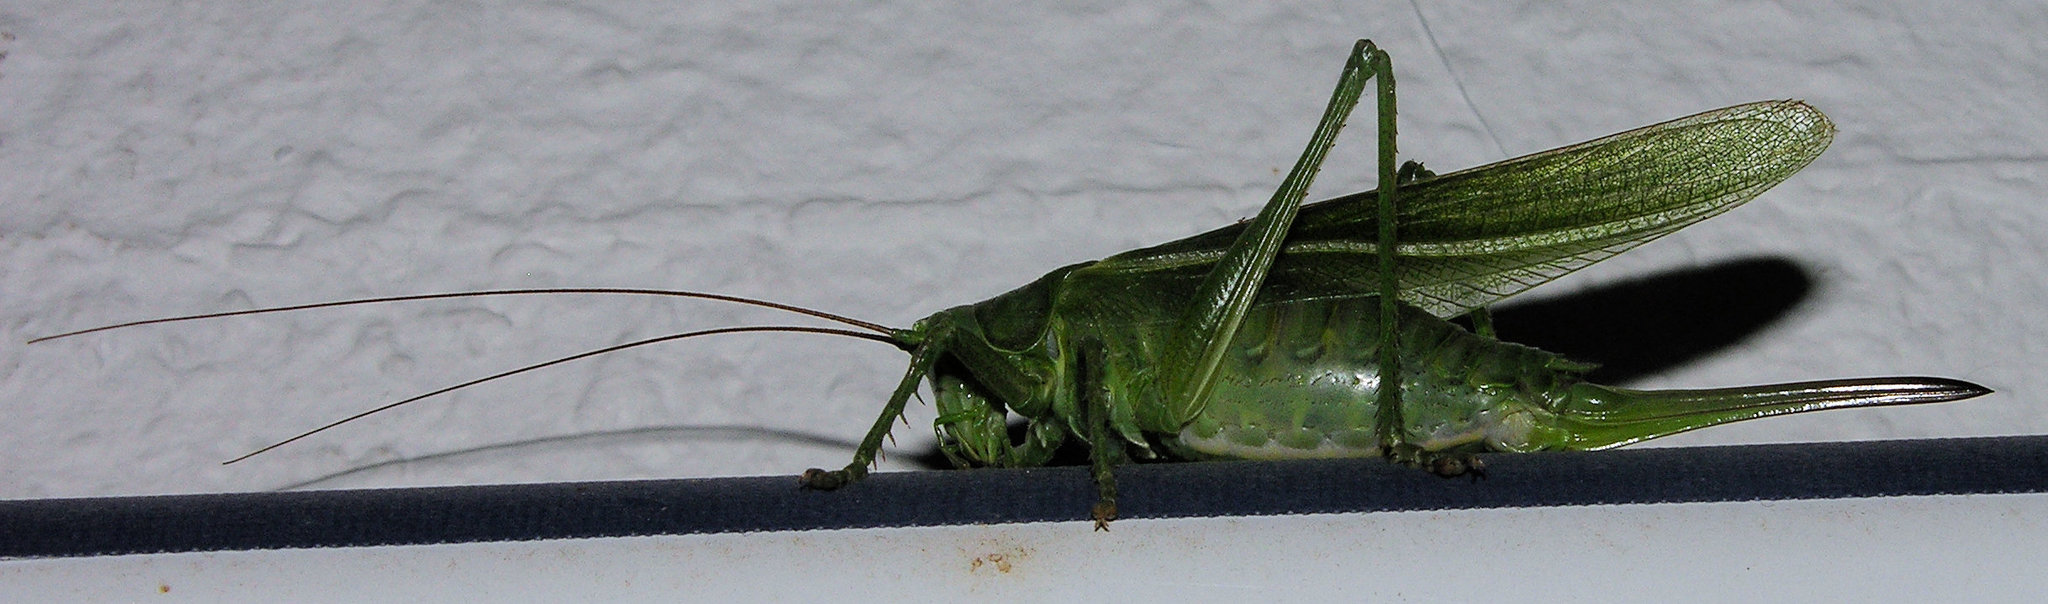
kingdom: Animalia
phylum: Arthropoda
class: Insecta
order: Orthoptera
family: Tettigoniidae
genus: Tettigonia
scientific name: Tettigonia viridissima
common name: Great green bush-cricket
